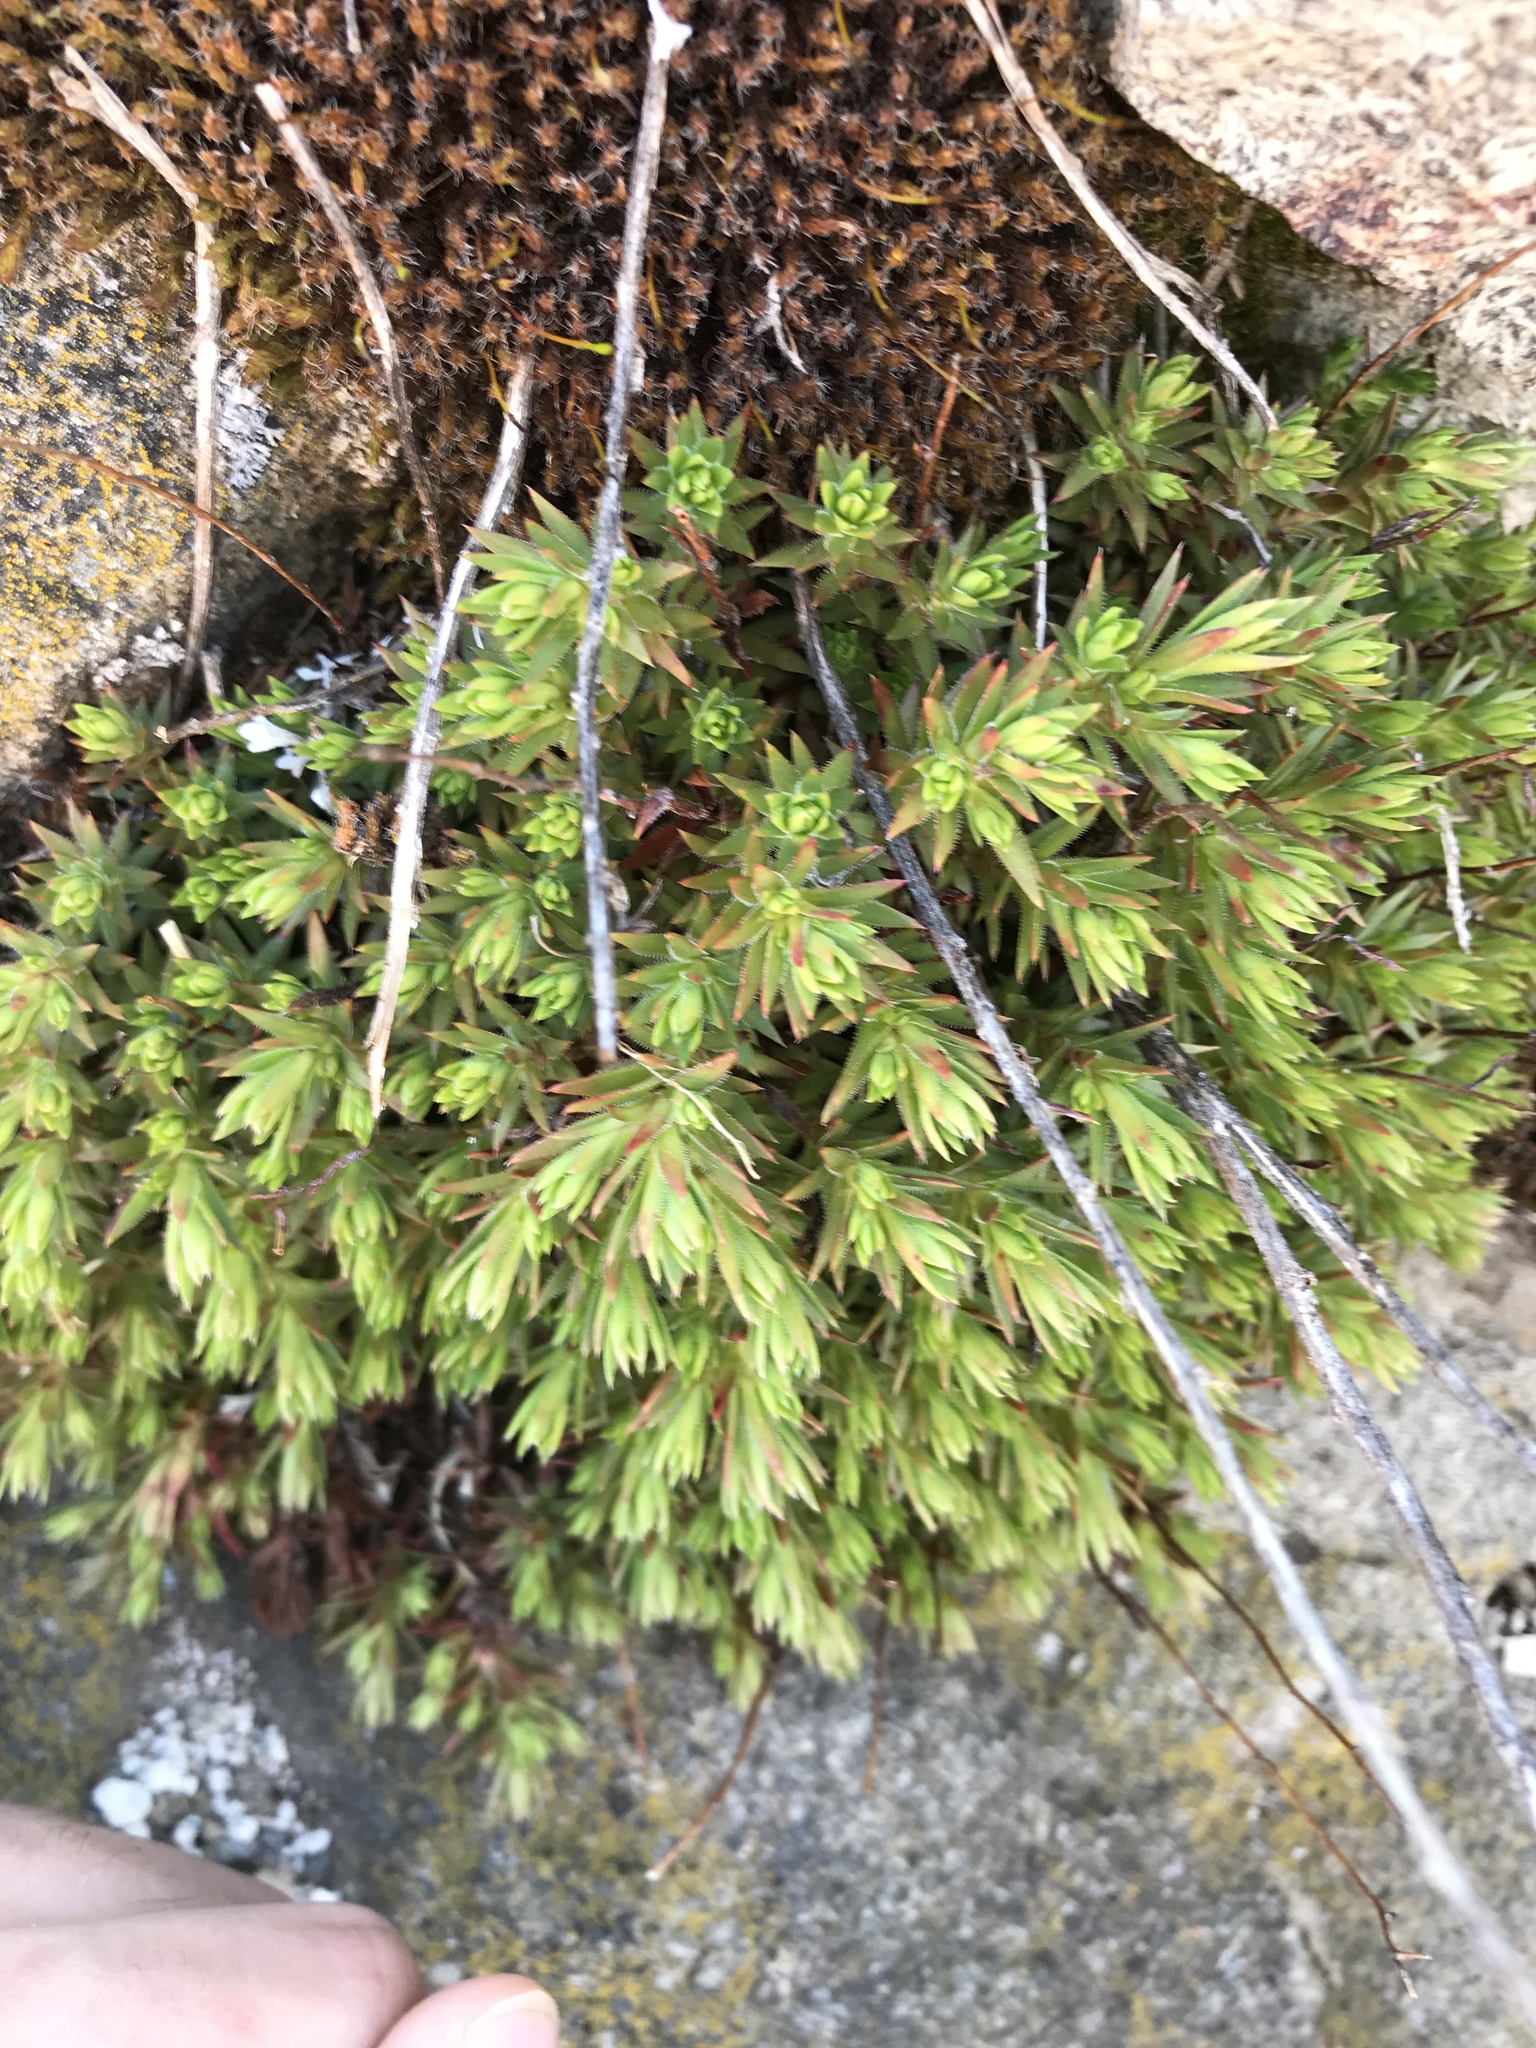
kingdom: Plantae
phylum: Tracheophyta
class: Magnoliopsida
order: Saxifragales
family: Saxifragaceae
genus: Saxifraga
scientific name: Saxifraga bronchialis
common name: Matted saxifrage
